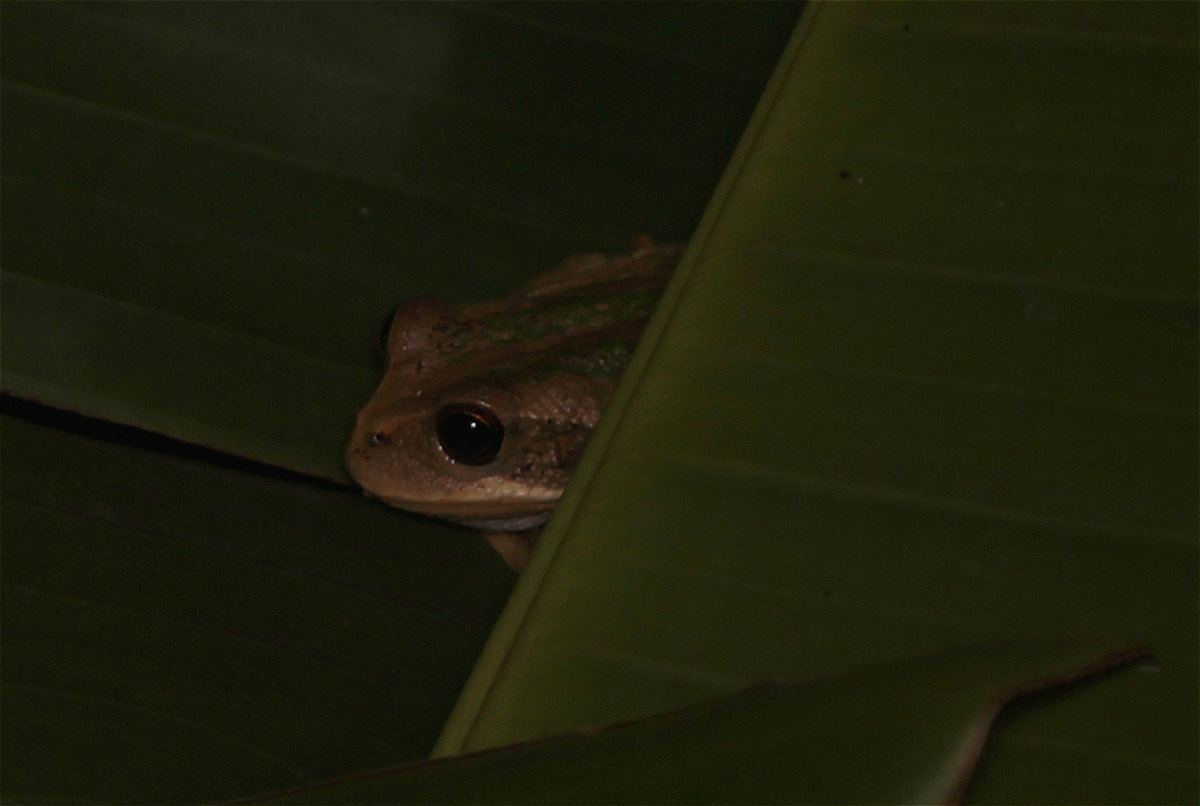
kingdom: Animalia
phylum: Chordata
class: Amphibia
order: Anura
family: Hemiphractidae
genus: Gastrotheca
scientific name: Gastrotheca cuencana
